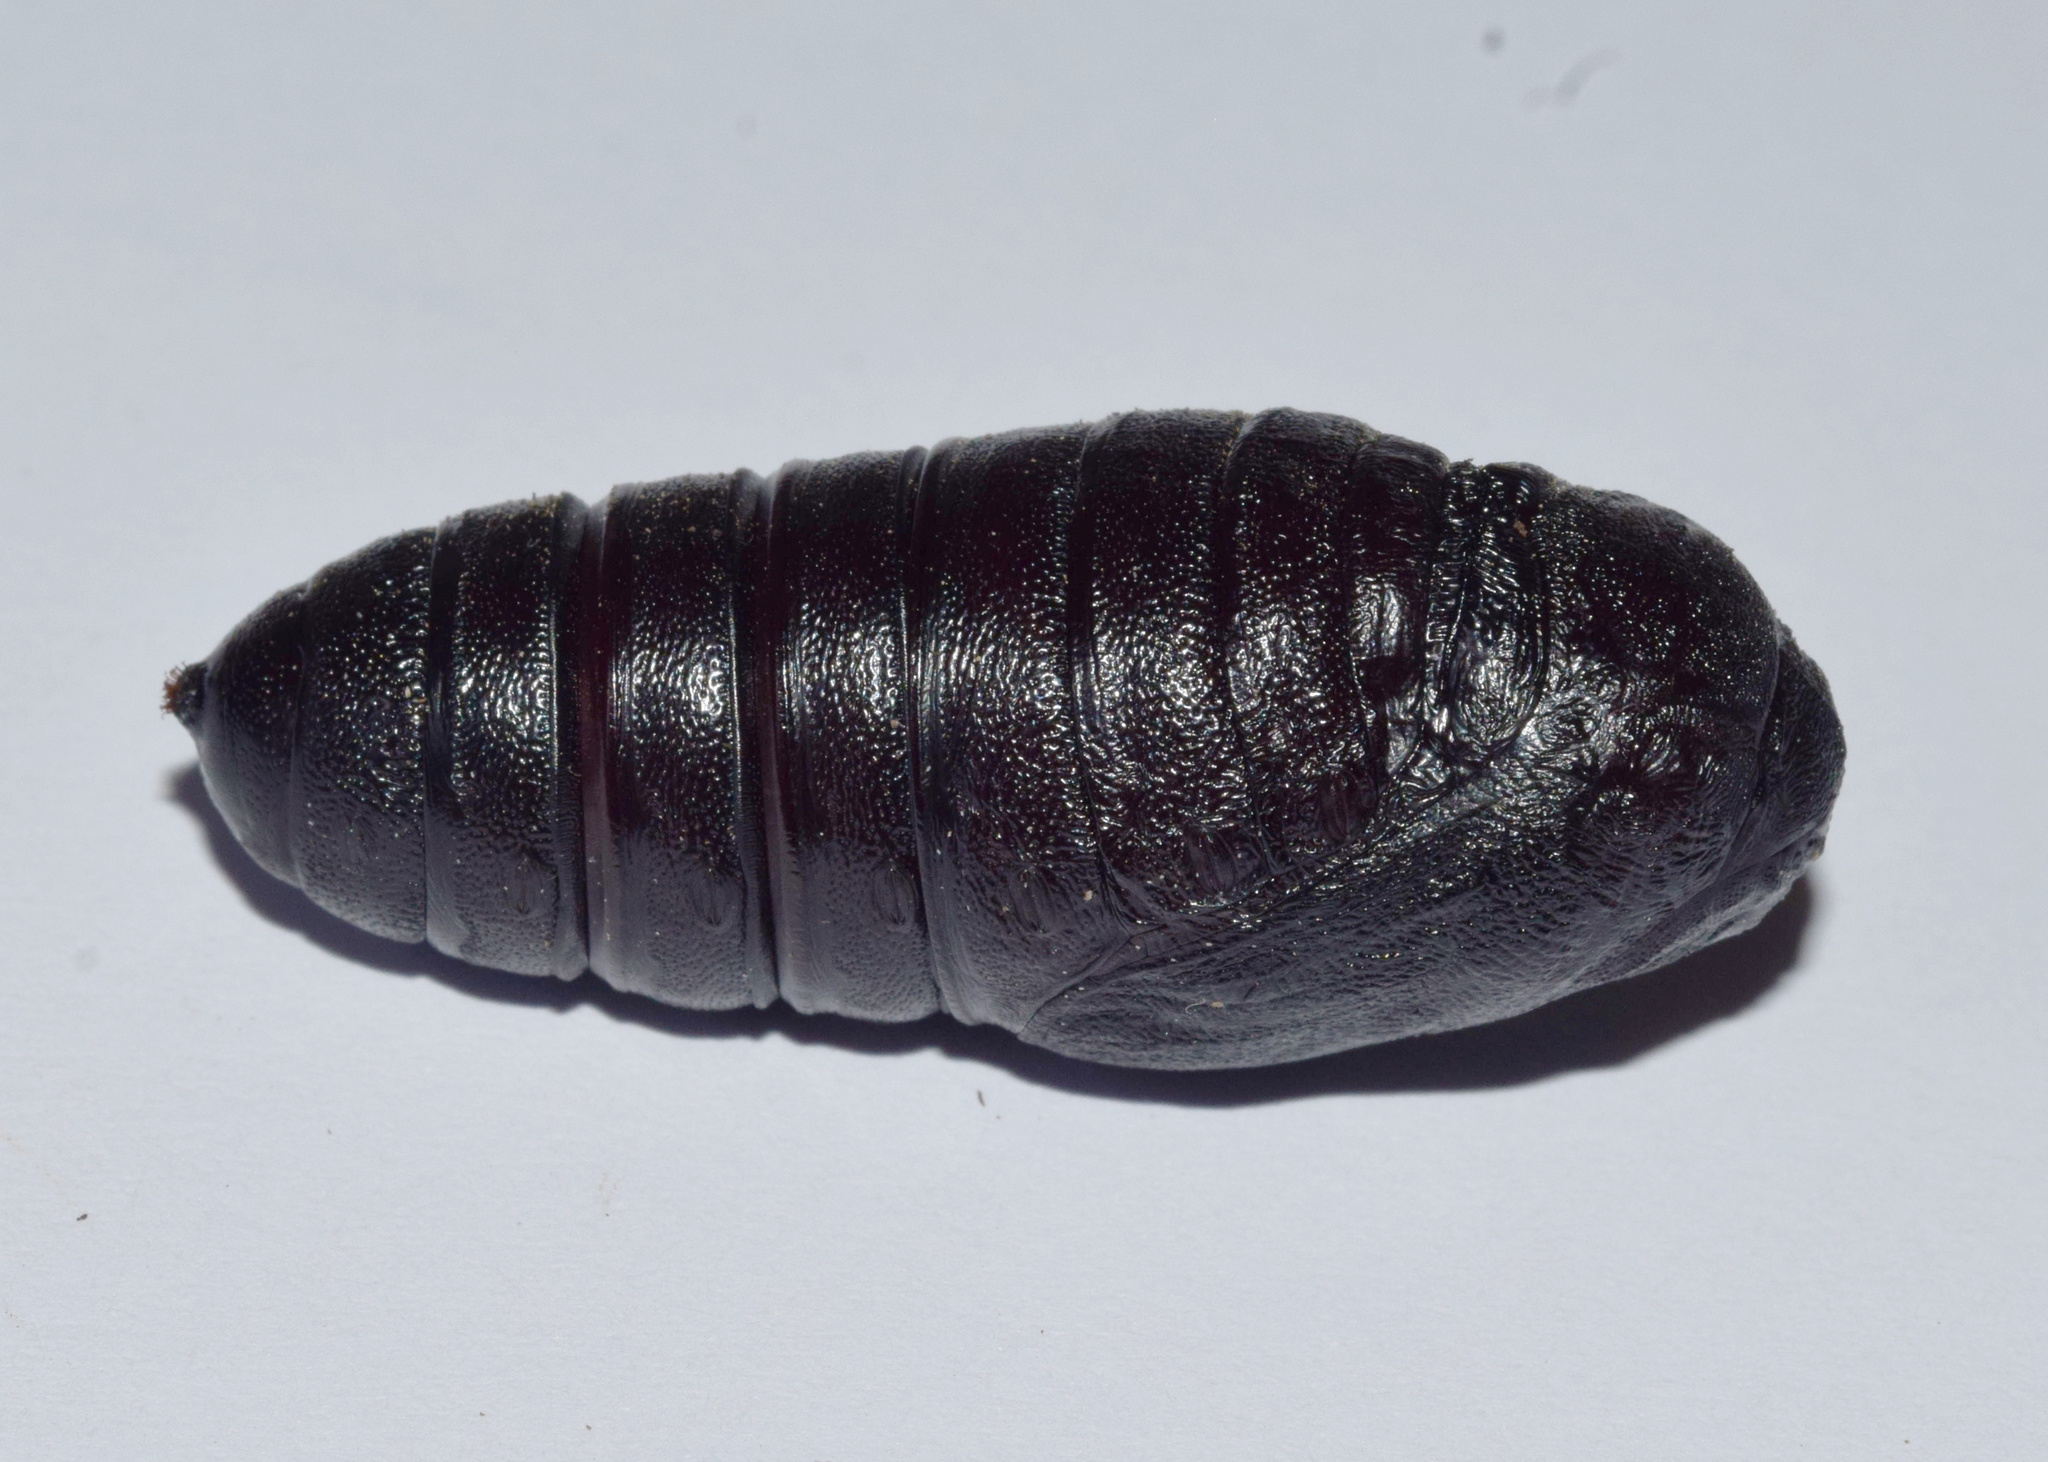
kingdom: Animalia
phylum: Arthropoda
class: Insecta
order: Lepidoptera
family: Eupterotidae
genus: Jana
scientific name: Jana eurymas
